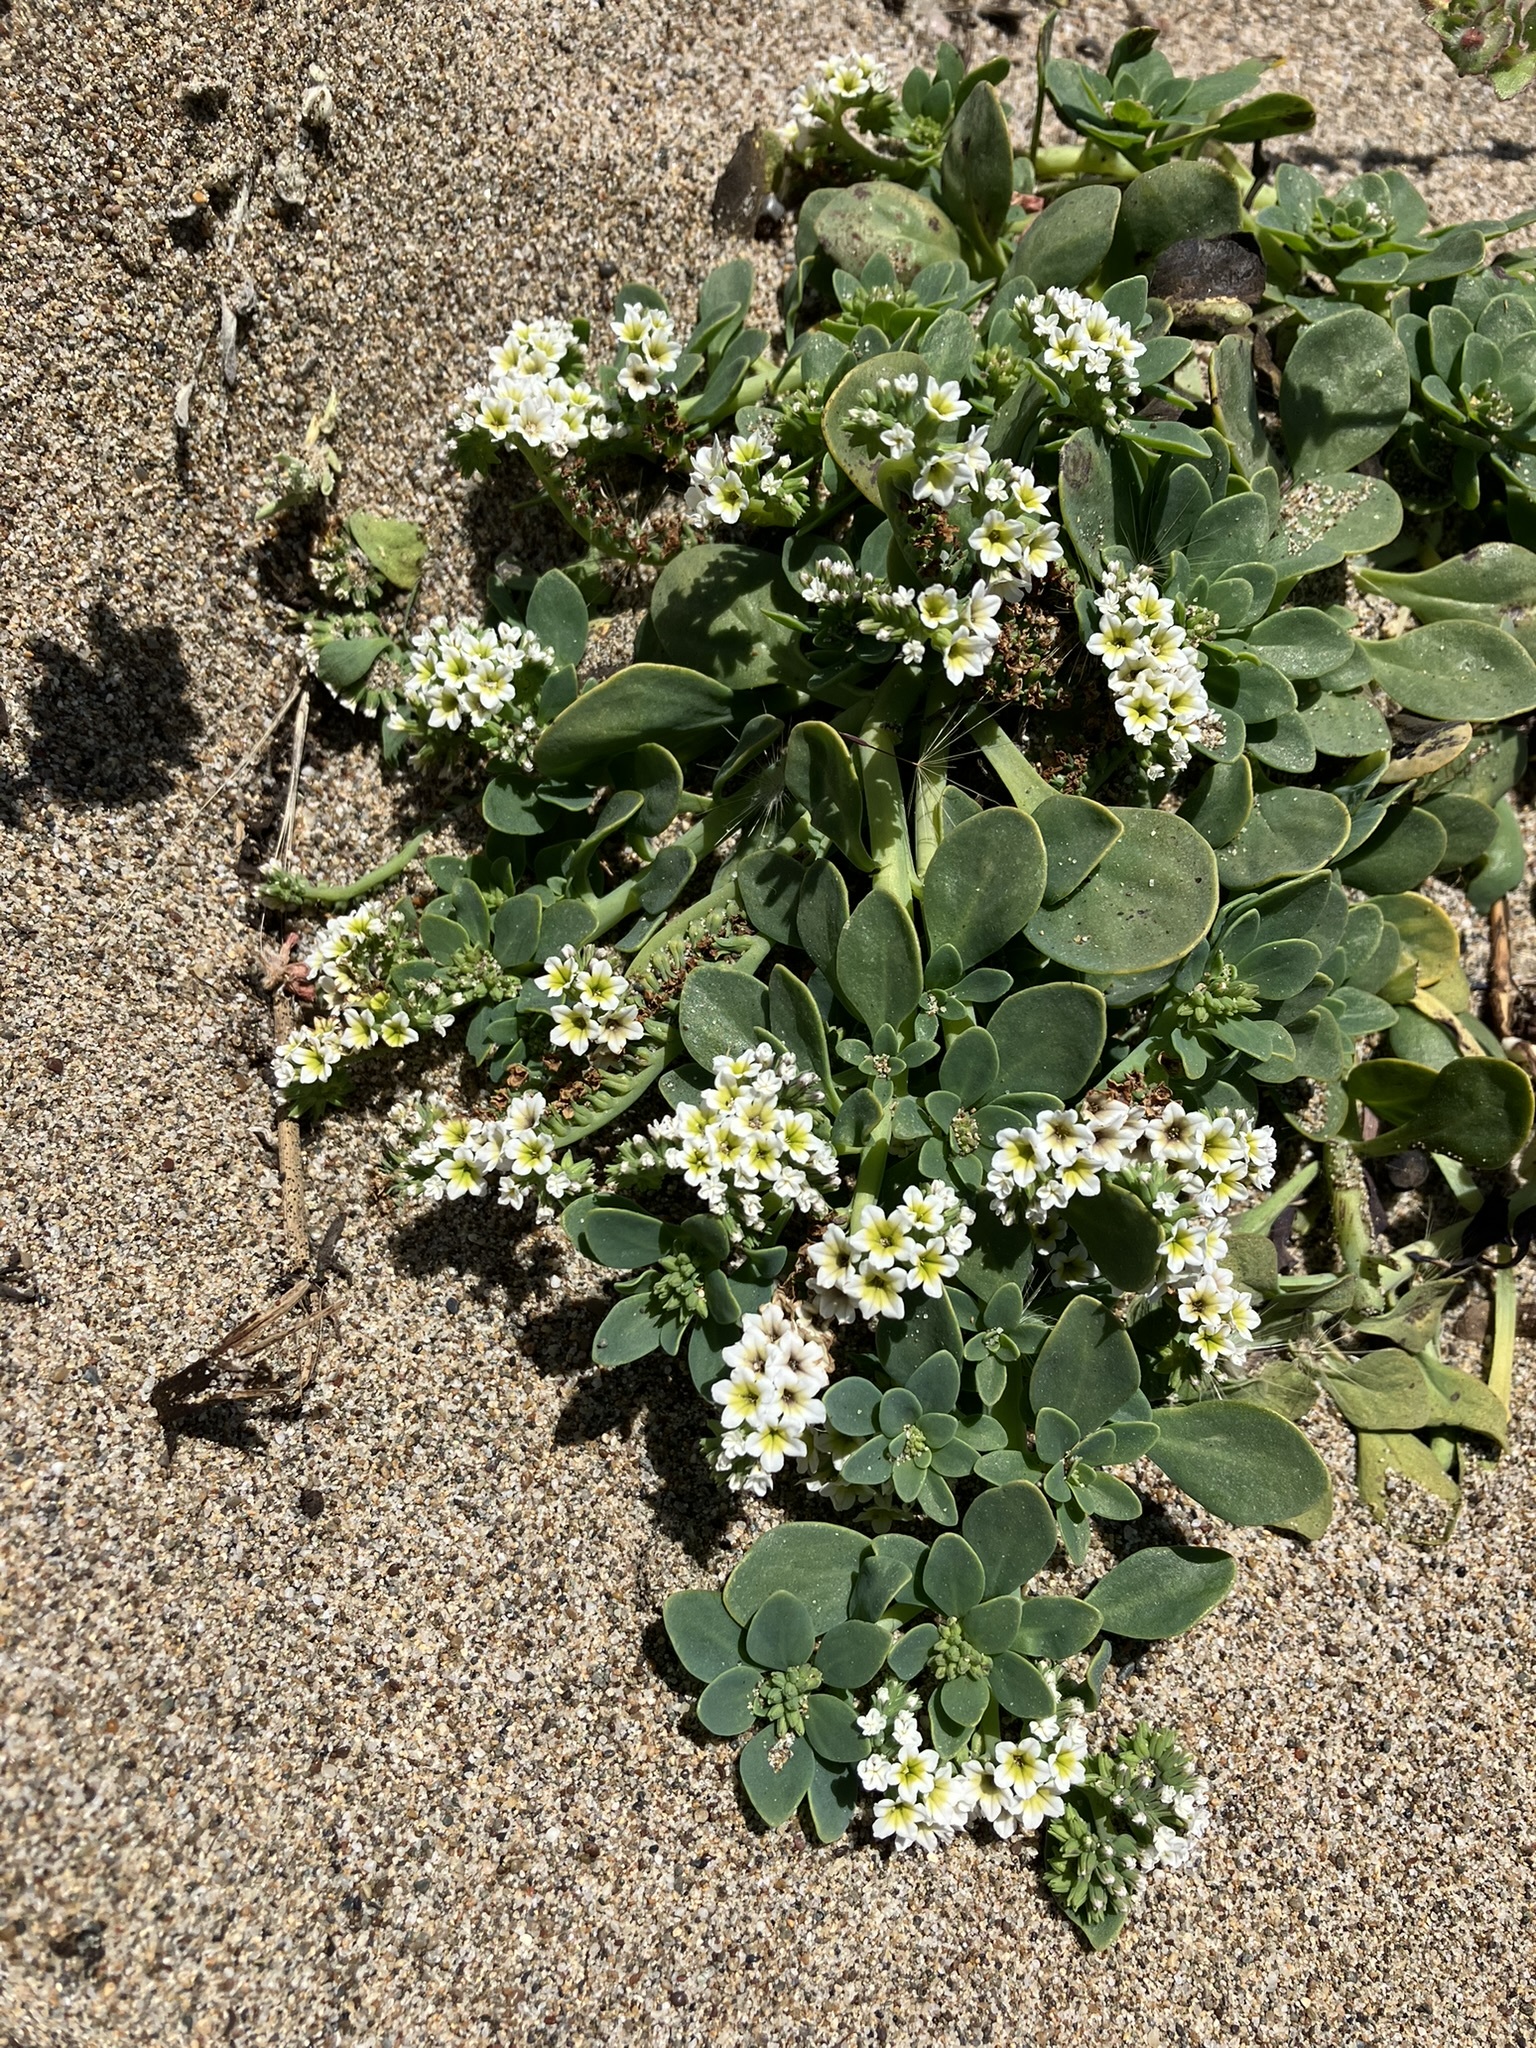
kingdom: Plantae
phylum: Tracheophyta
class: Magnoliopsida
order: Boraginales
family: Heliotropiaceae
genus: Heliotropium
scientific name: Heliotropium curassavicum
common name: Seaside heliotrope
